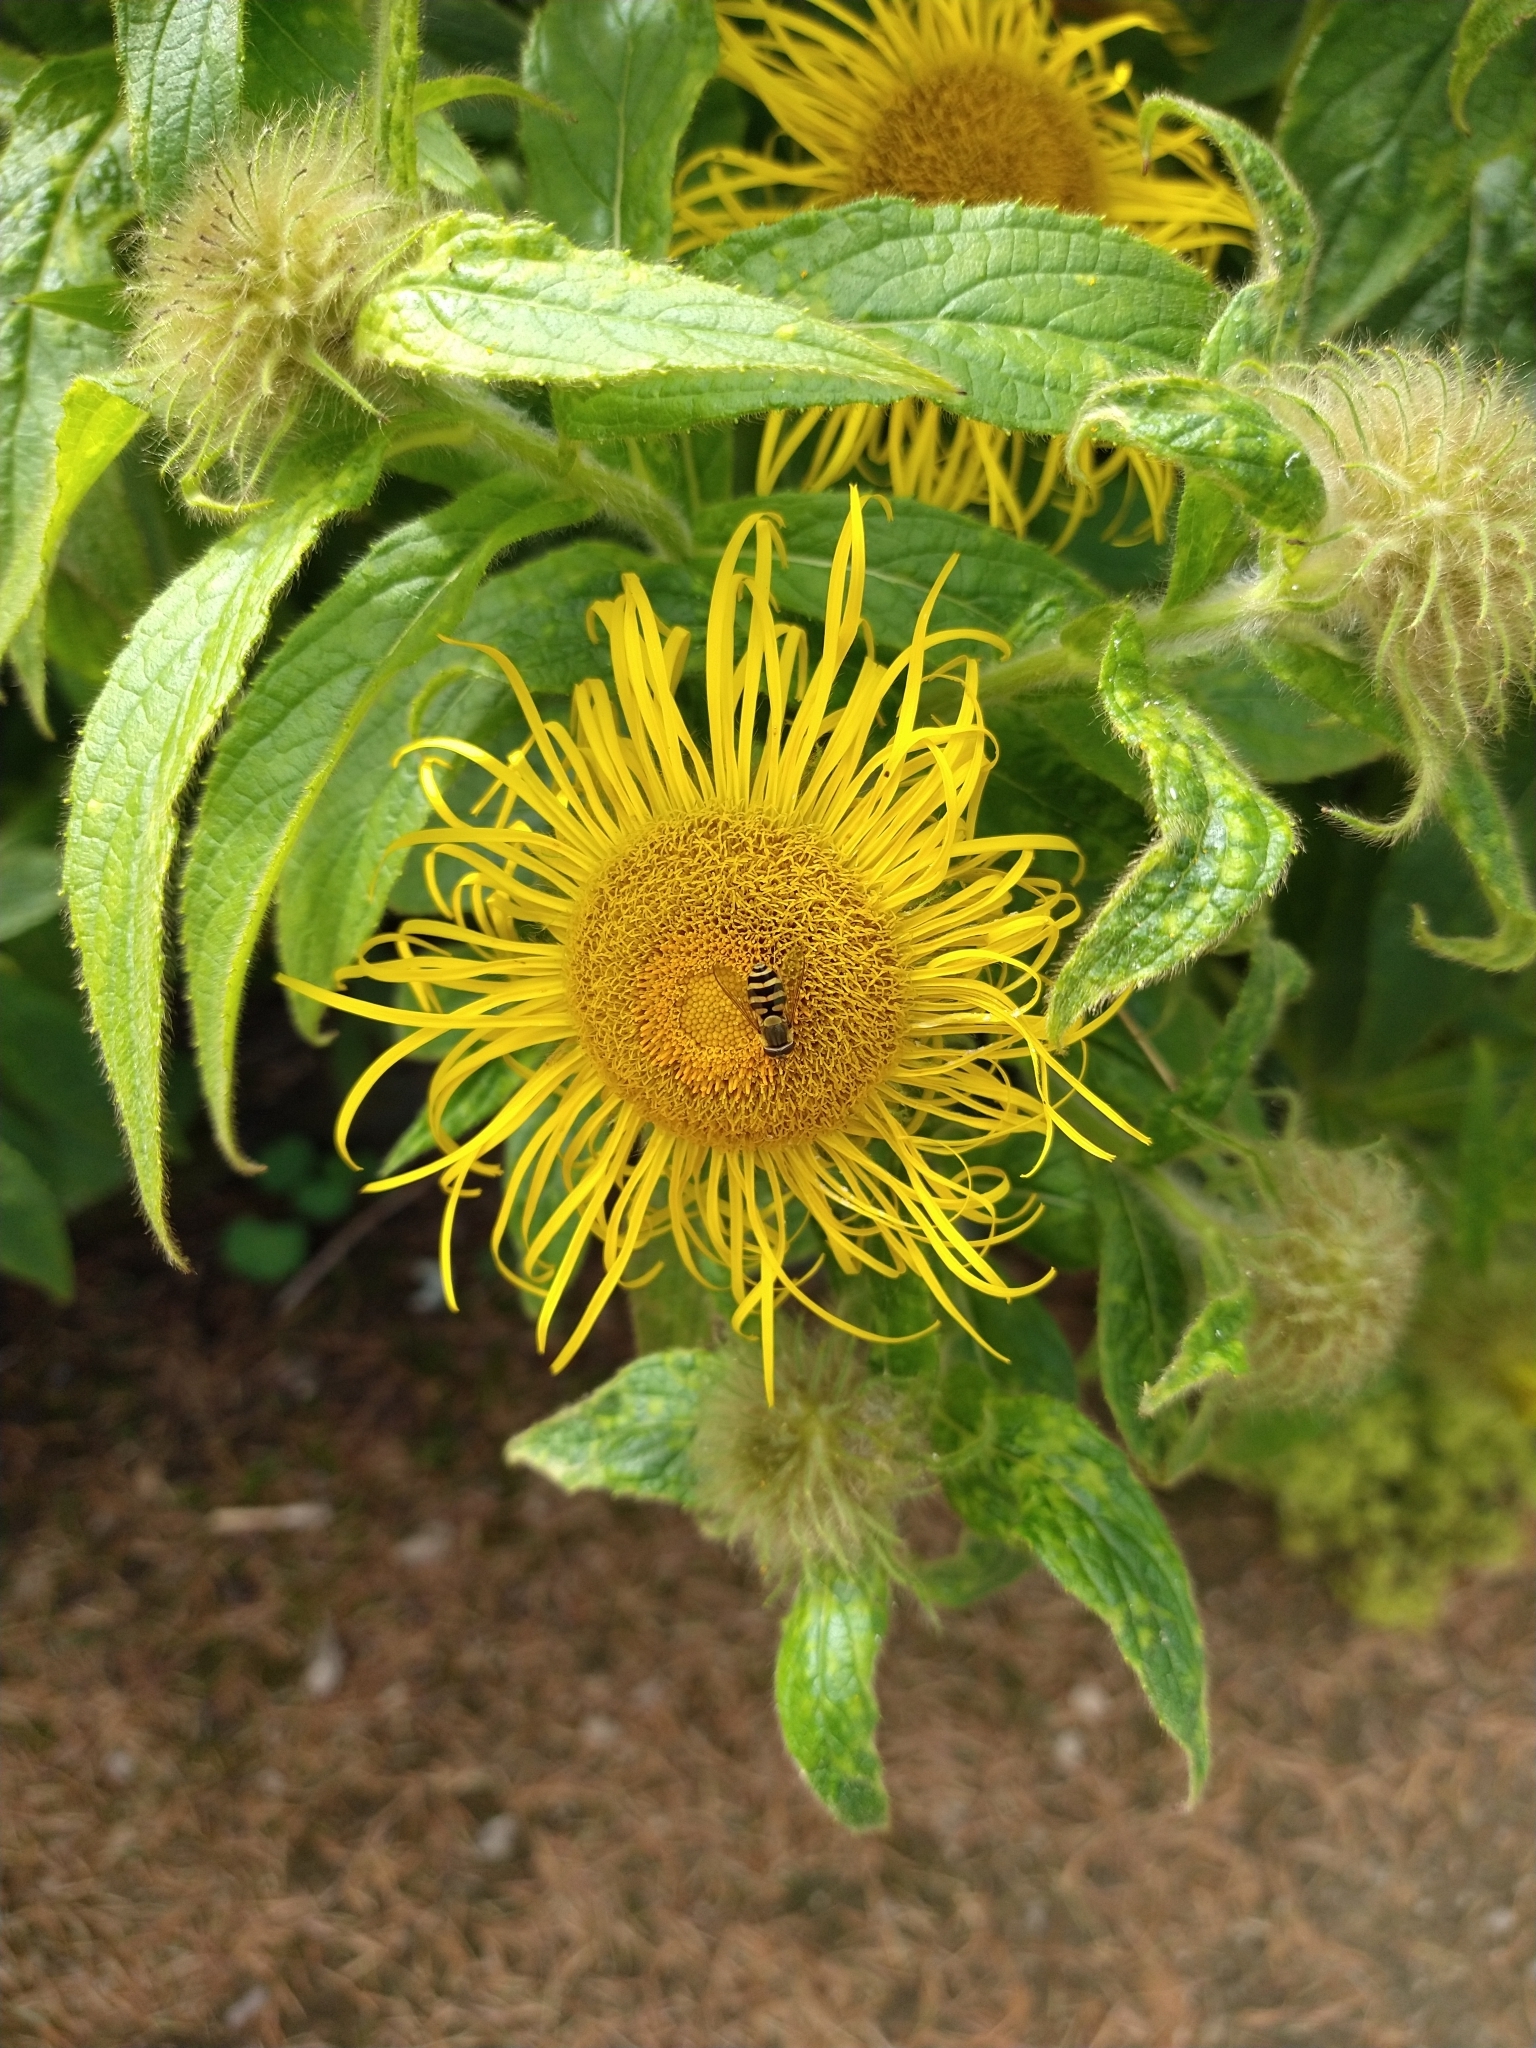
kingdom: Animalia
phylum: Arthropoda
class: Insecta
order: Diptera
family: Syrphidae
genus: Syrphus
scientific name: Syrphus
